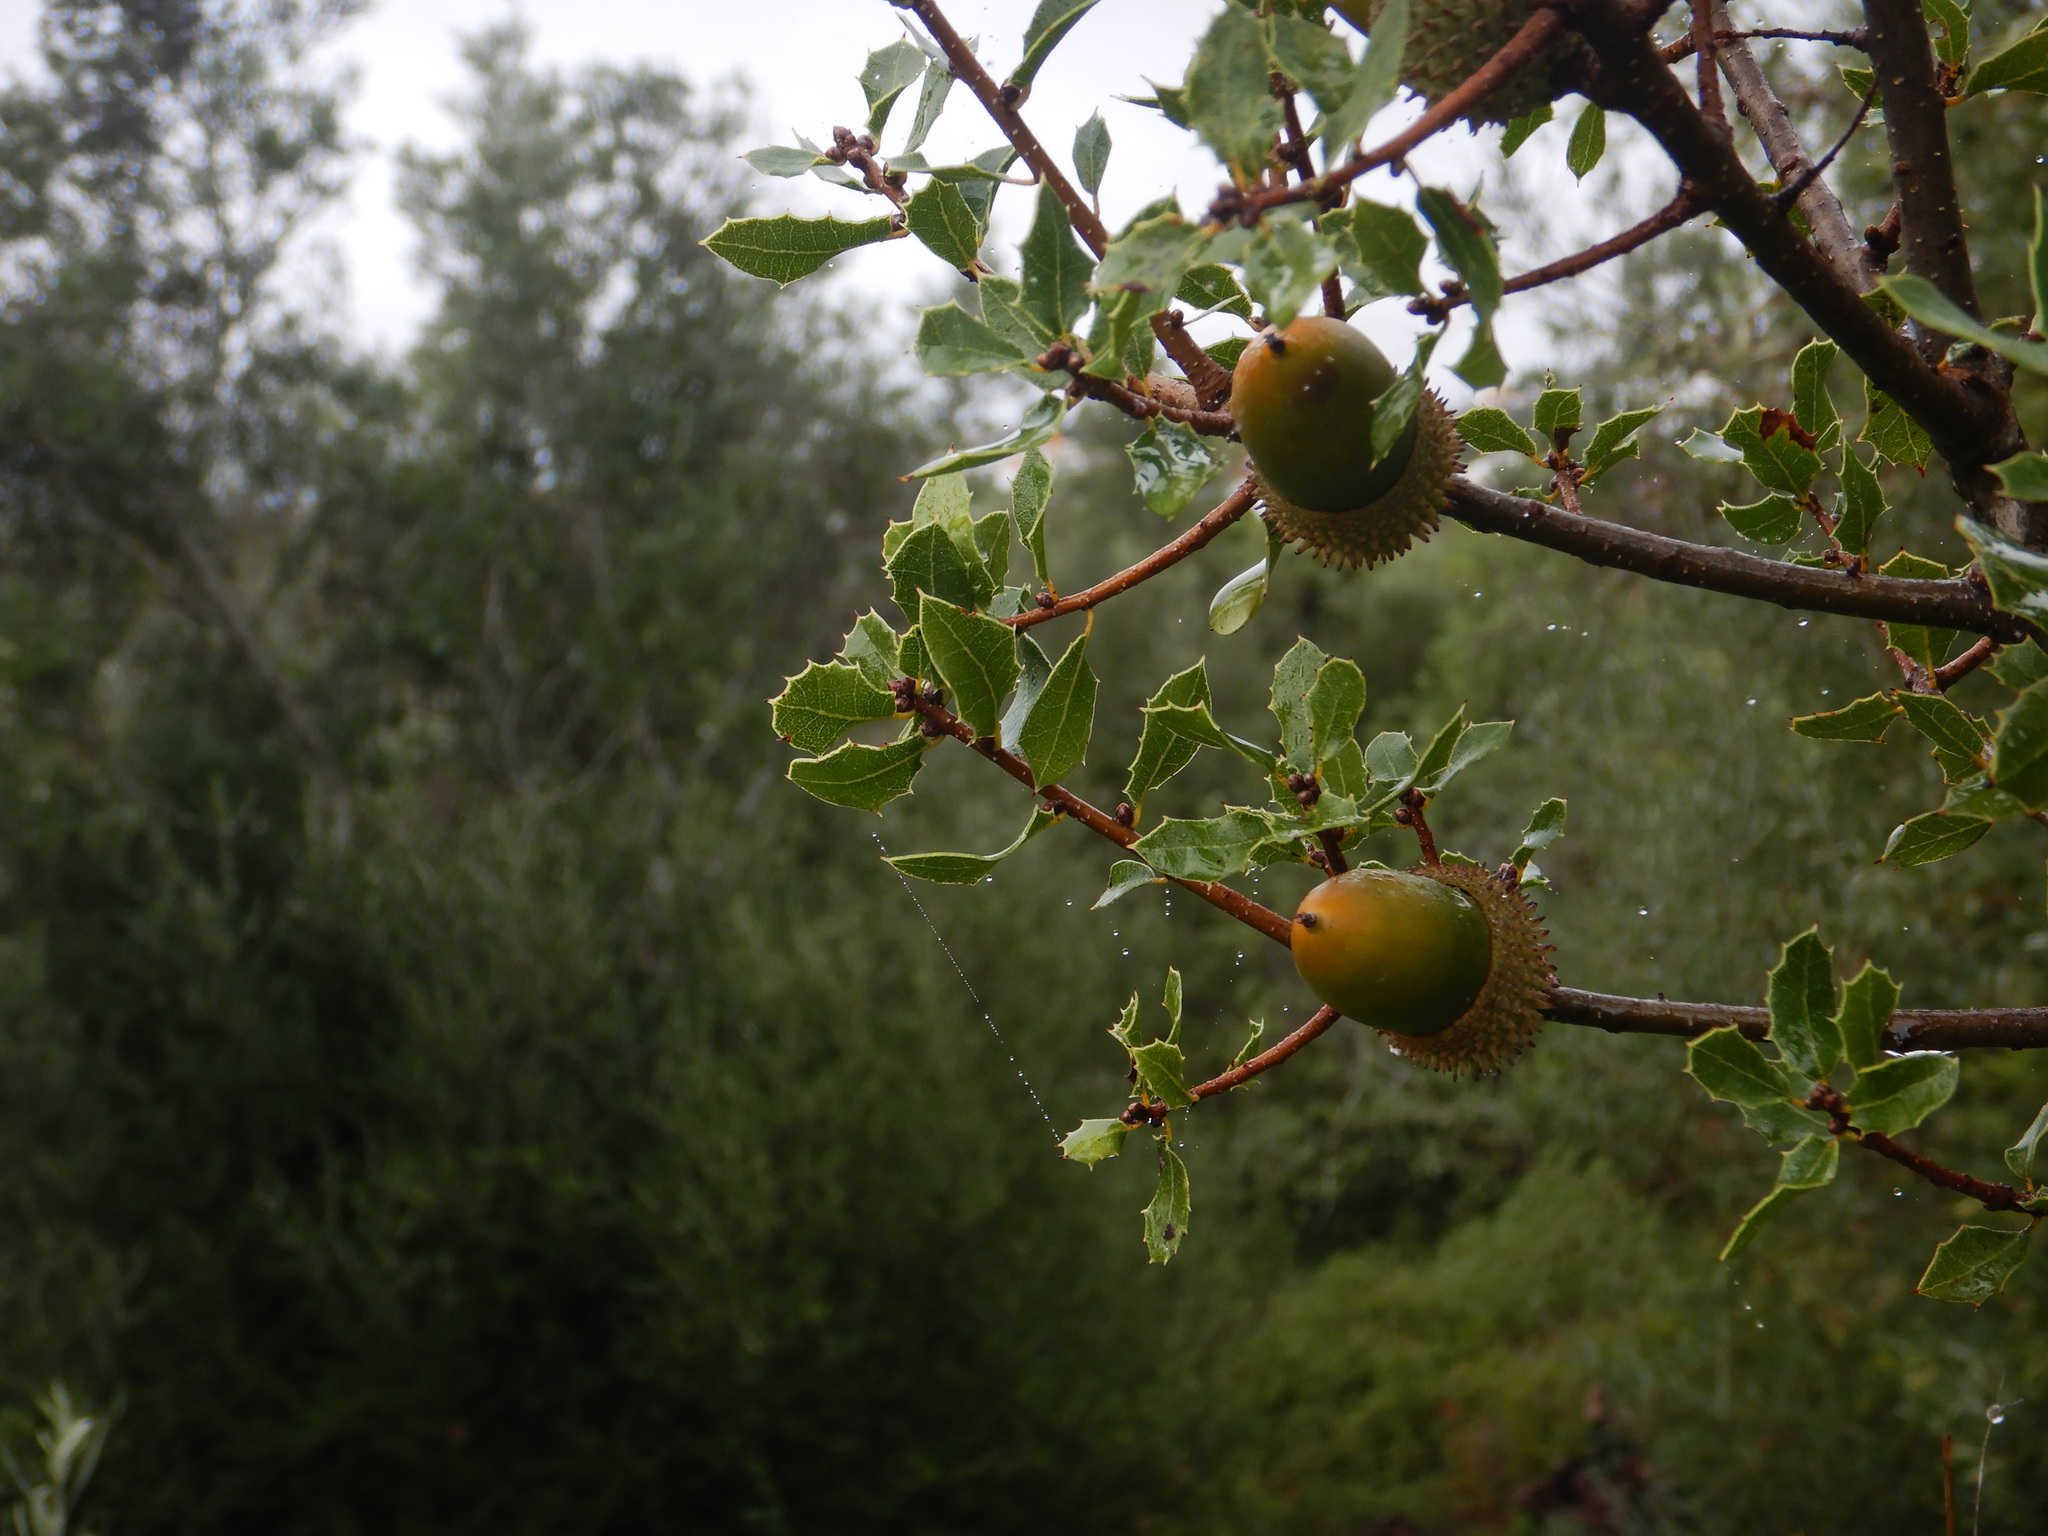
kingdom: Plantae
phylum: Tracheophyta
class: Magnoliopsida
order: Fagales
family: Fagaceae
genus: Quercus
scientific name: Quercus coccifera
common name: Kermes oak
